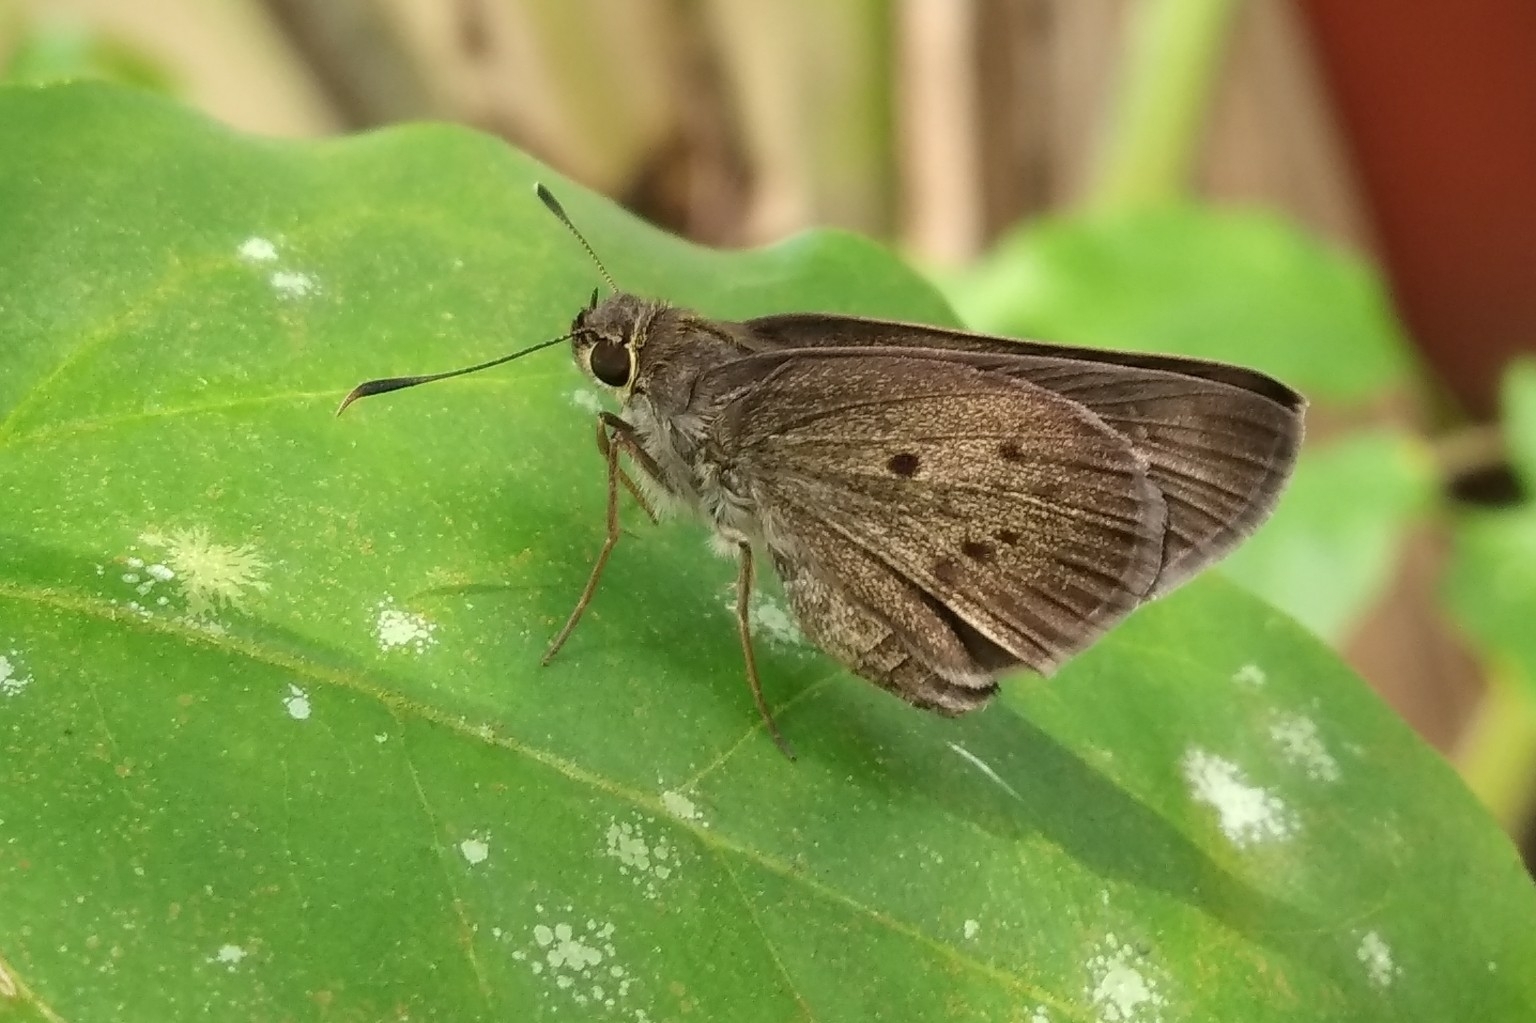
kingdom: Animalia
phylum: Arthropoda
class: Insecta
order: Lepidoptera
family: Hesperiidae
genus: Suastus
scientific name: Suastus gremius
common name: Indian palm bob
